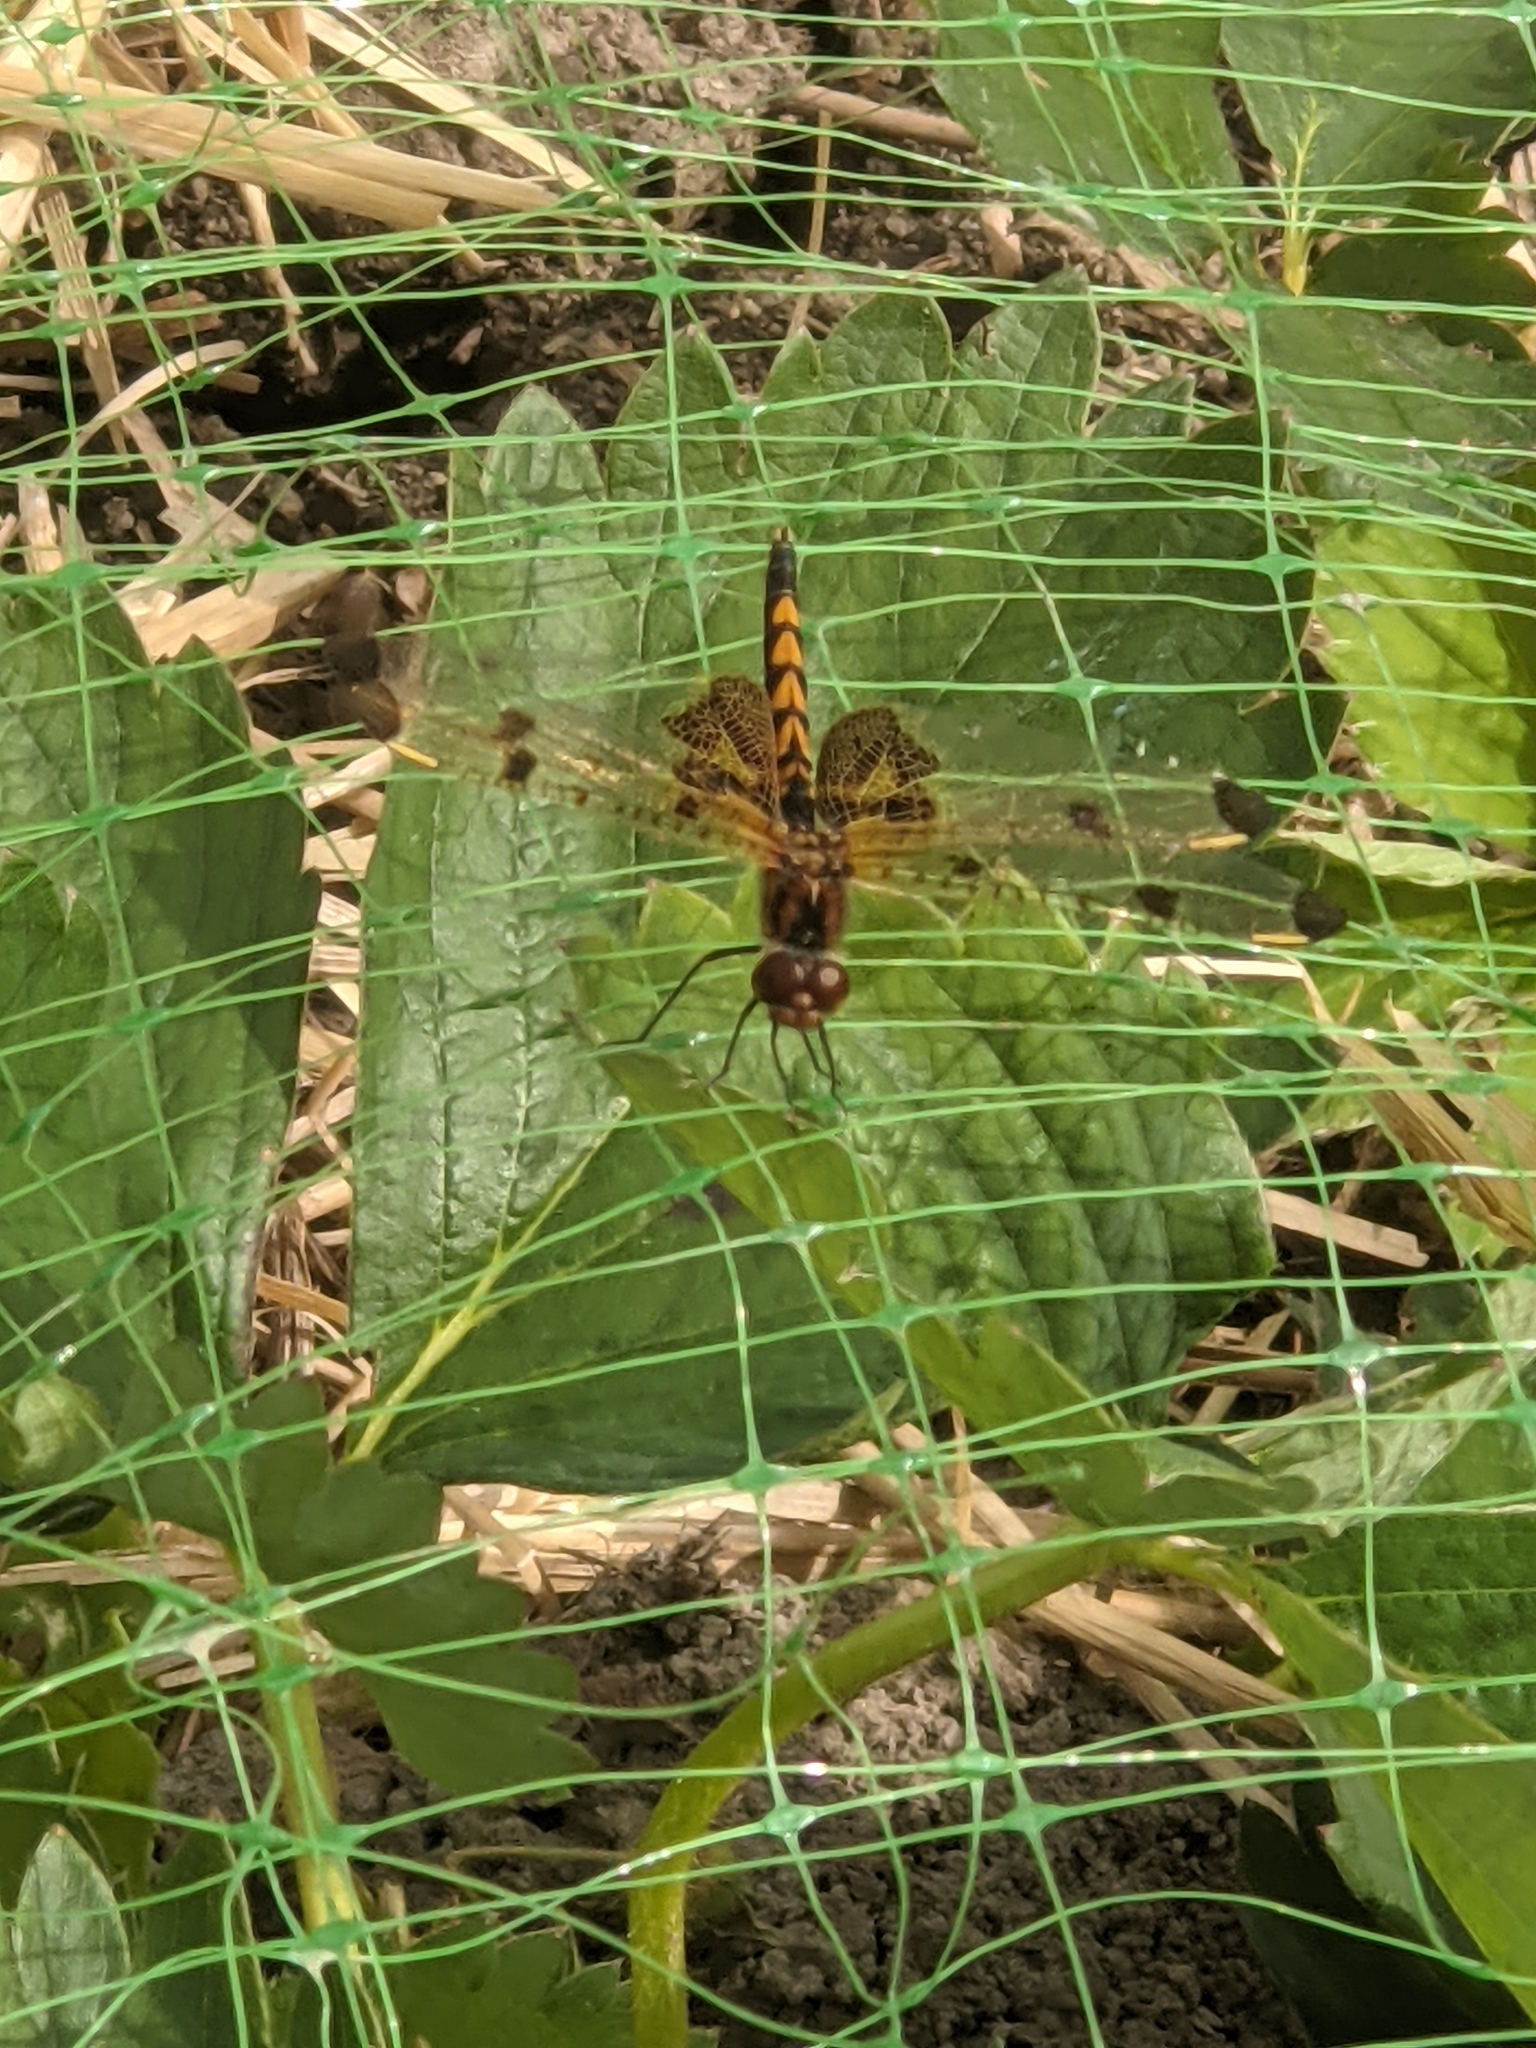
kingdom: Animalia
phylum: Arthropoda
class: Insecta
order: Odonata
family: Libellulidae
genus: Celithemis
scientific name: Celithemis elisa
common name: Calico pennant
